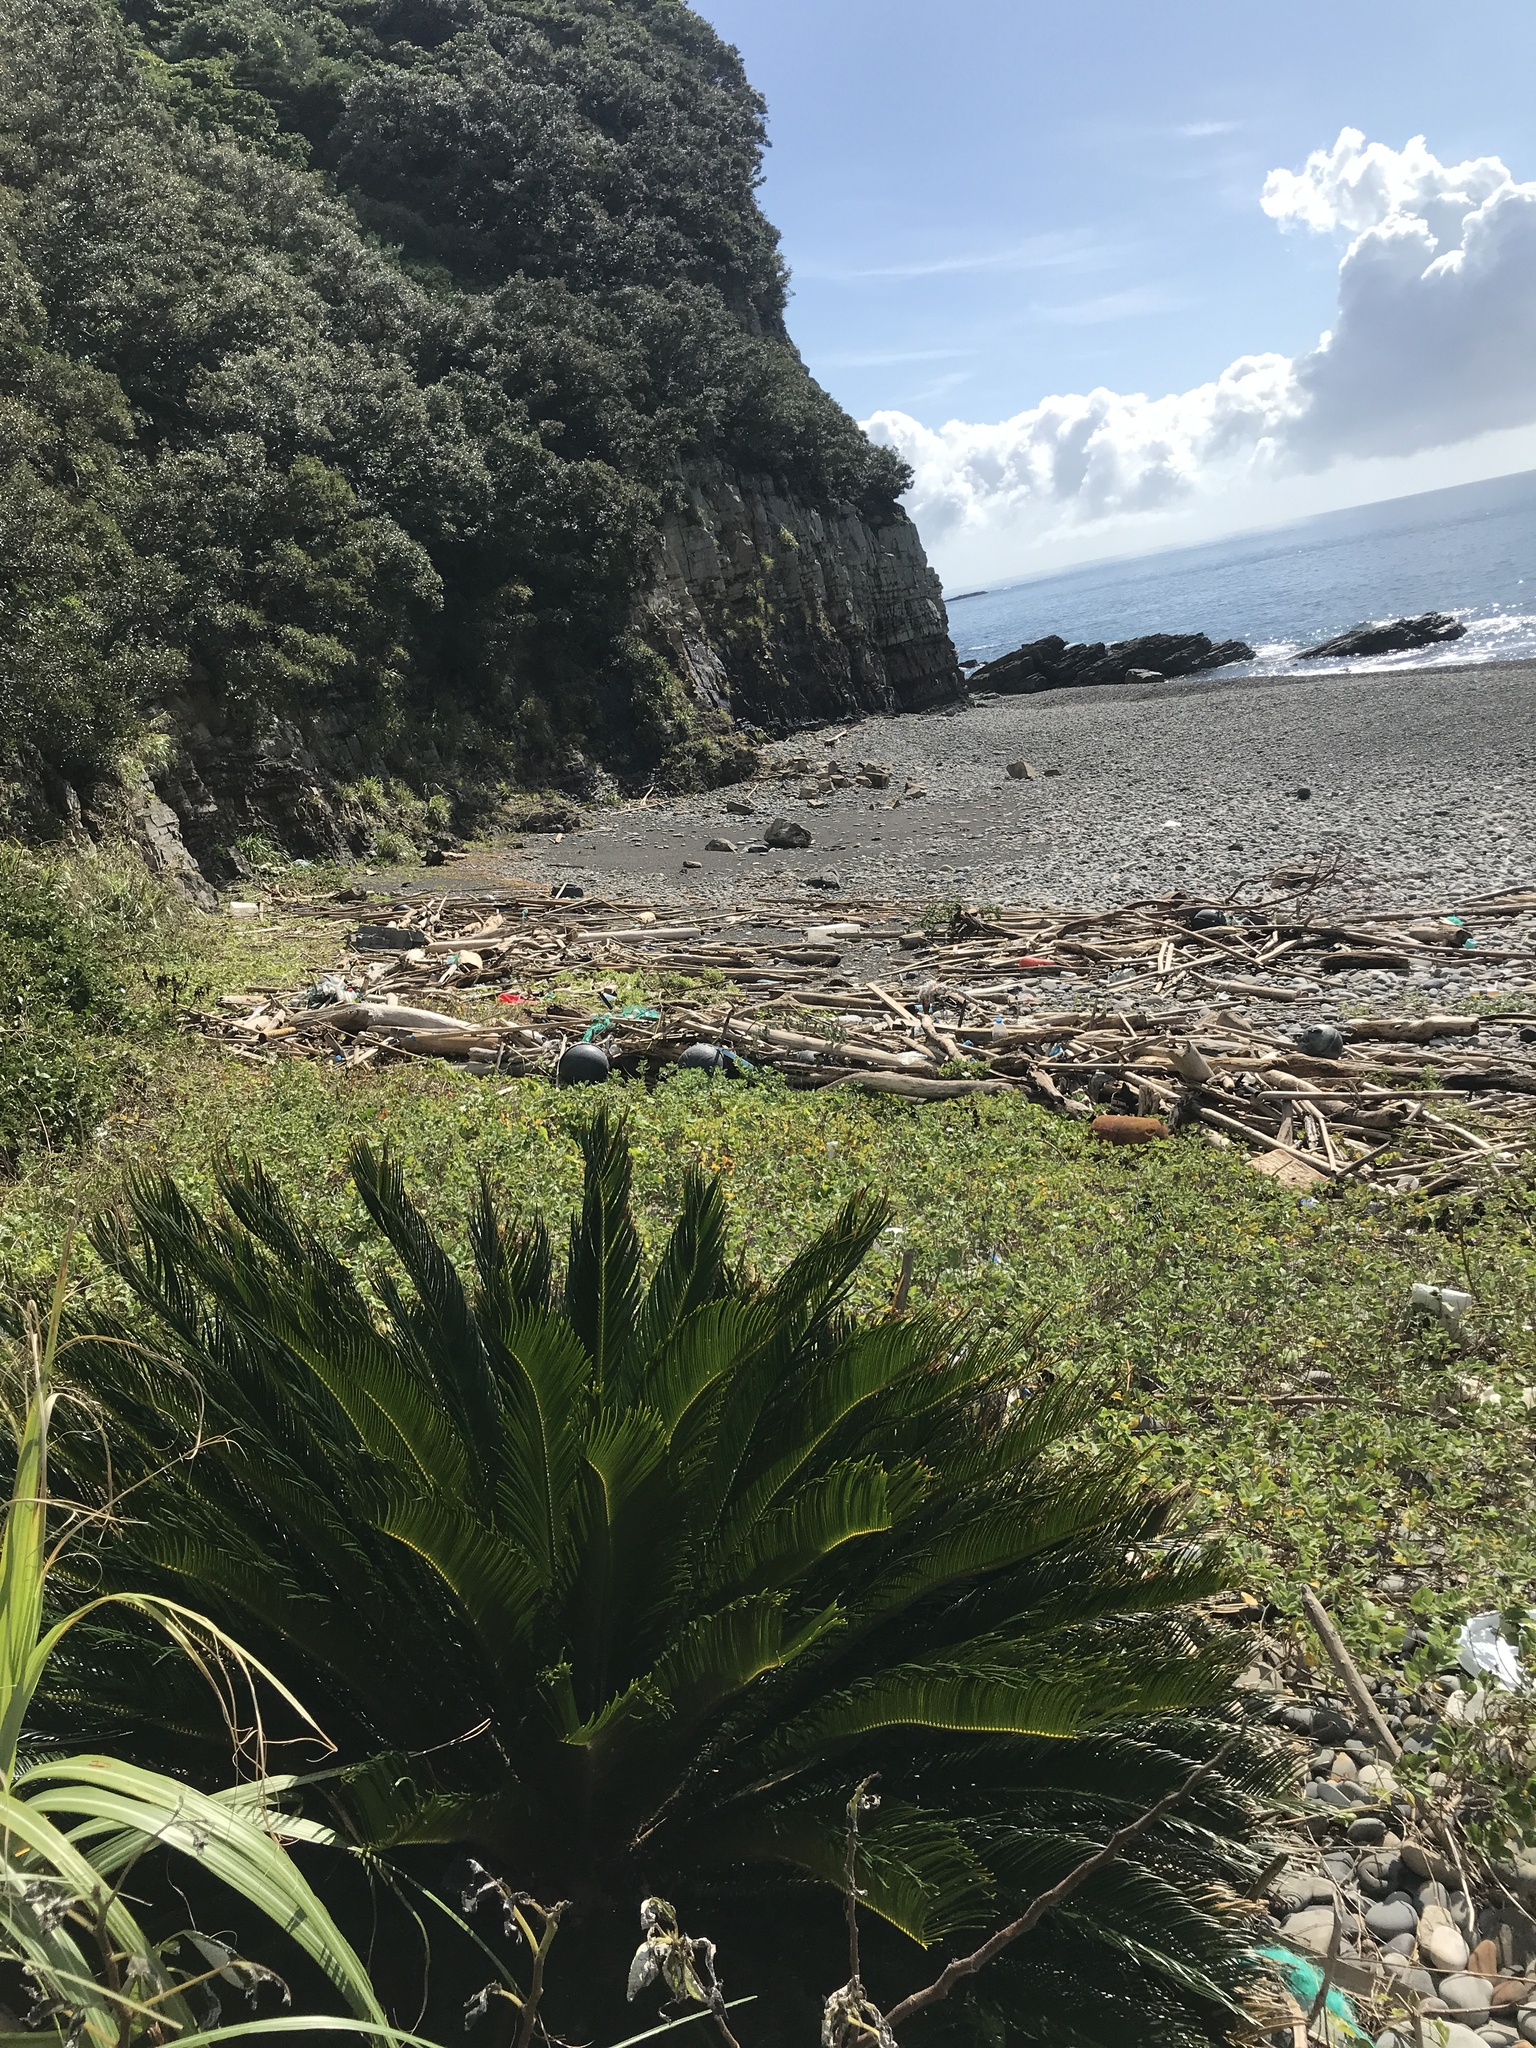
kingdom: Plantae
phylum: Tracheophyta
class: Cycadopsida
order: Cycadales
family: Cycadaceae
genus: Cycas
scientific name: Cycas revoluta
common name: Sago palm
